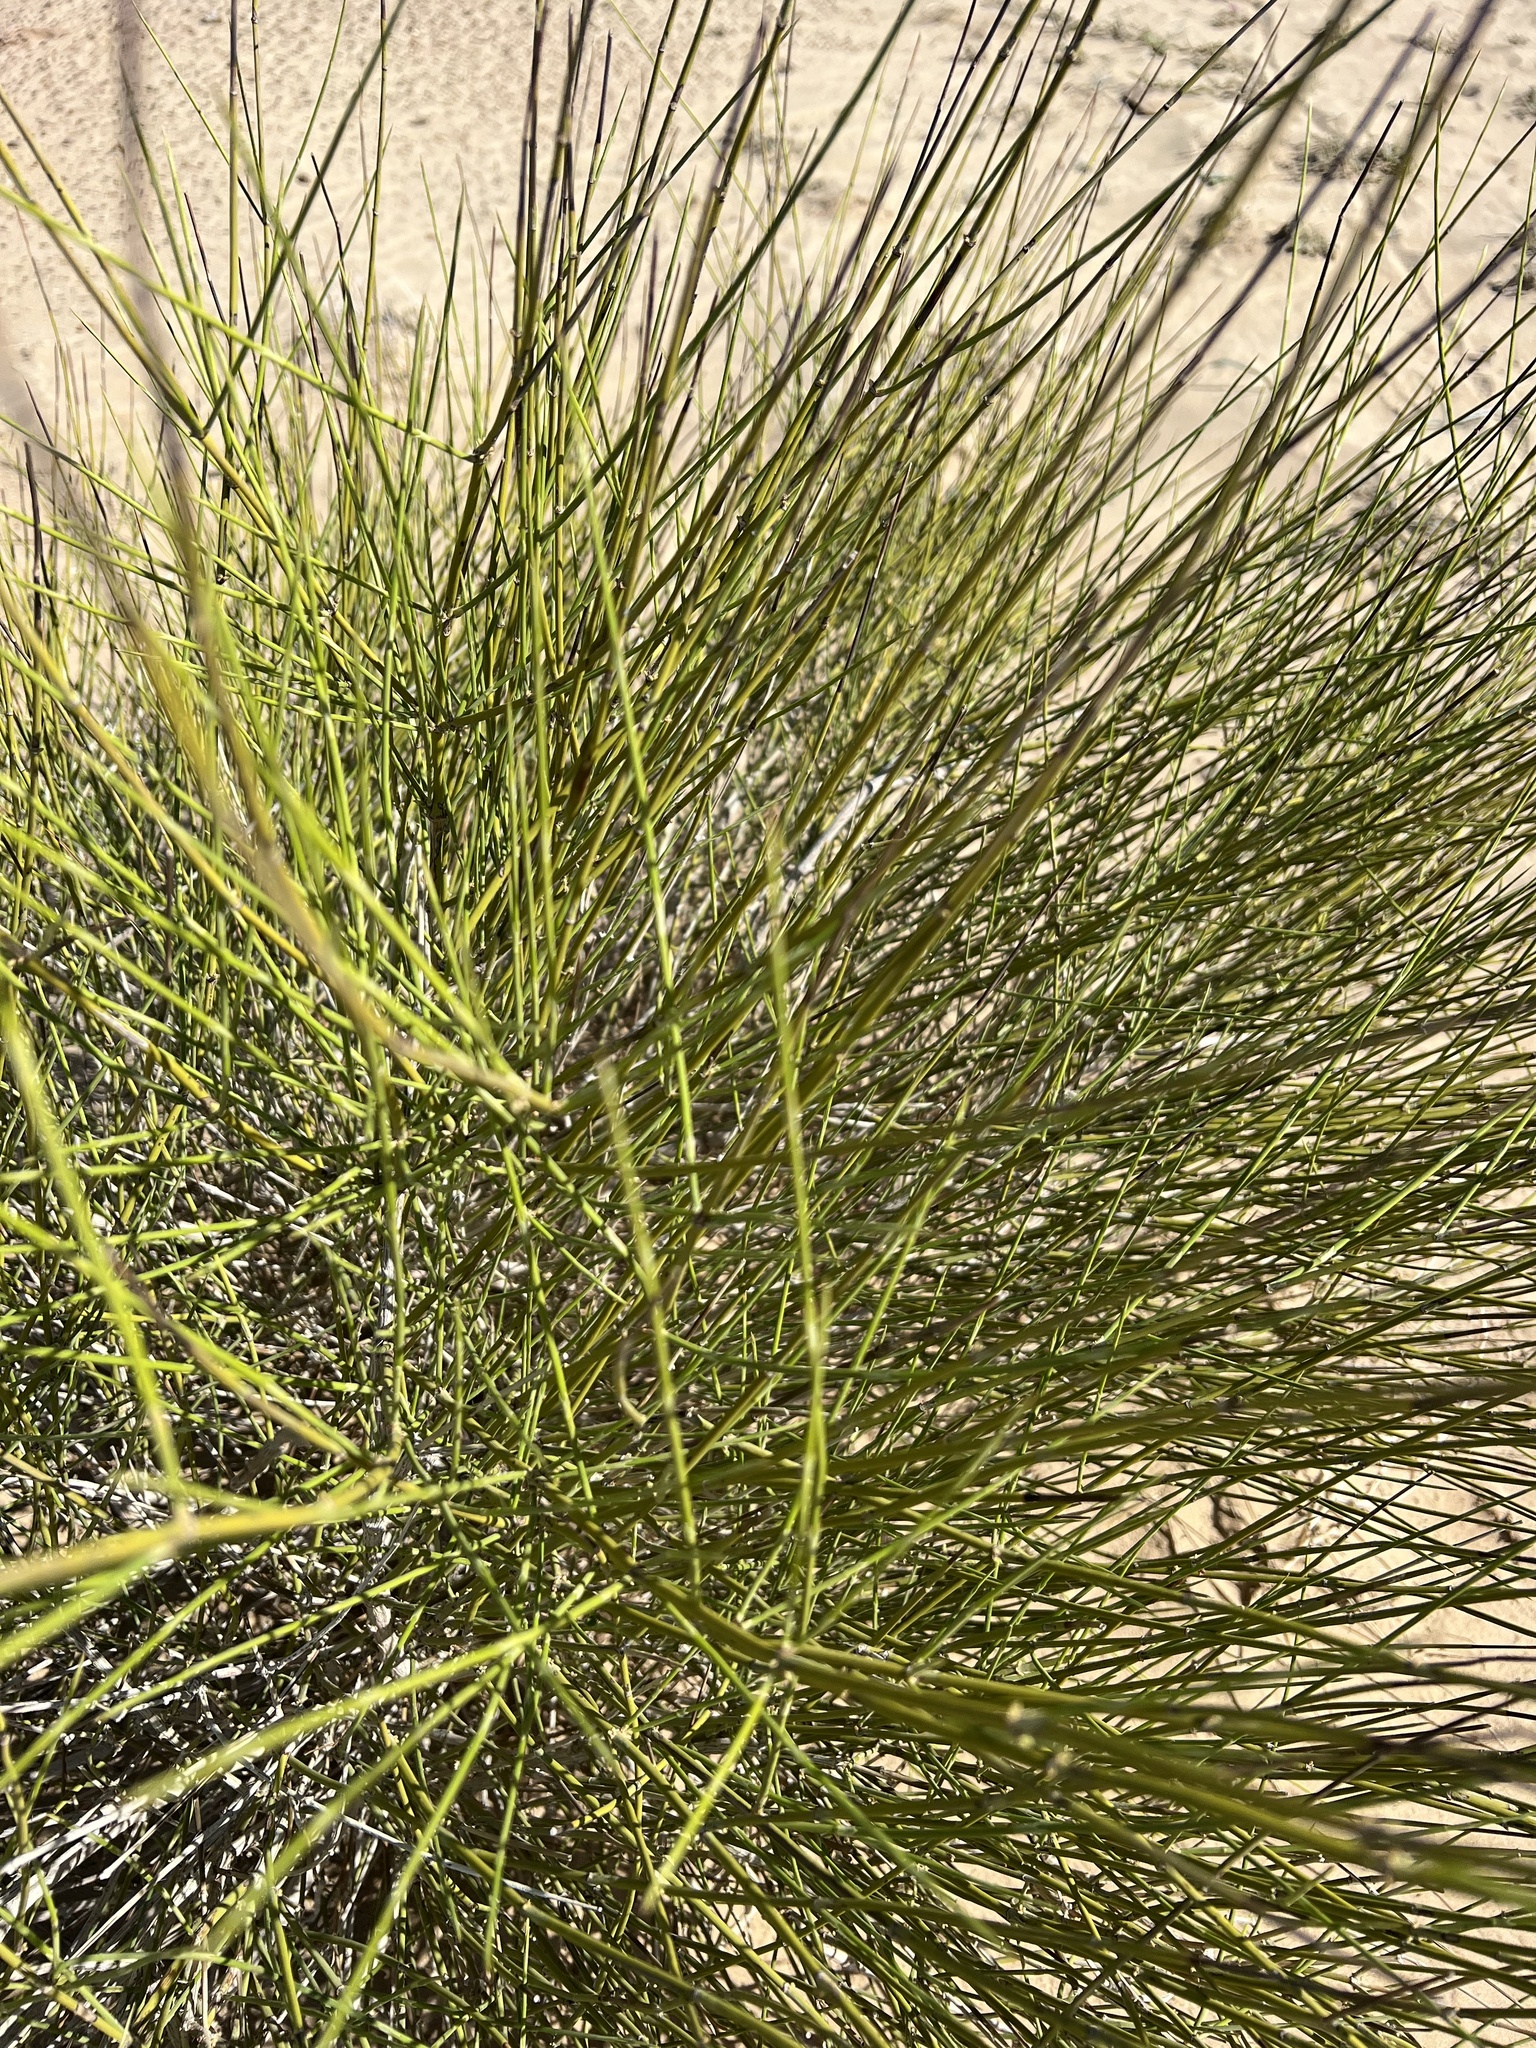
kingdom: Plantae
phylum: Tracheophyta
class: Gnetopsida
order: Ephedrales
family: Ephedraceae
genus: Ephedra
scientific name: Ephedra trifurca
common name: Mexican-tea
